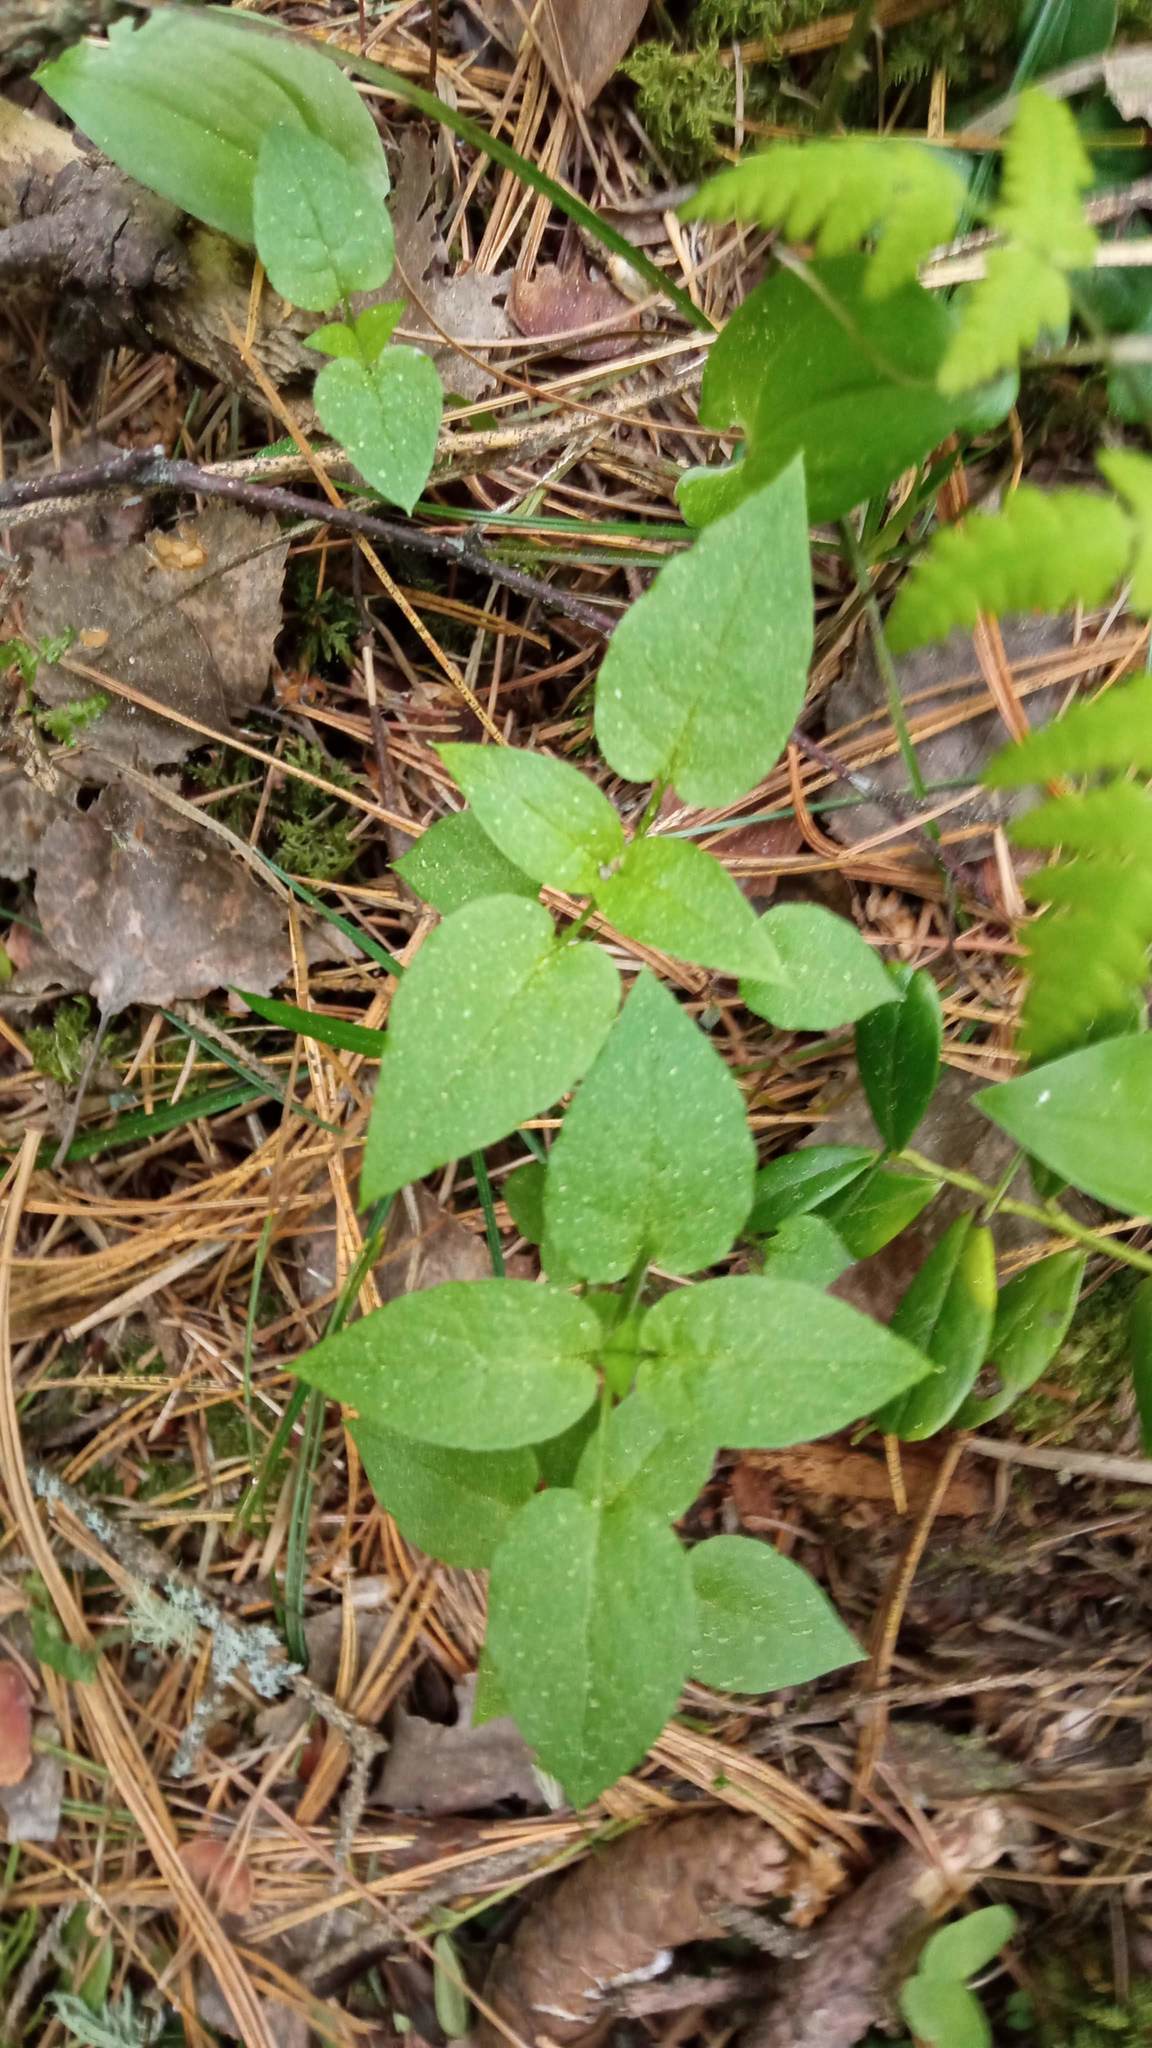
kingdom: Plantae
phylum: Tracheophyta
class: Magnoliopsida
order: Caryophyllales
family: Caryophyllaceae
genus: Stellaria
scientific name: Stellaria bungeana
